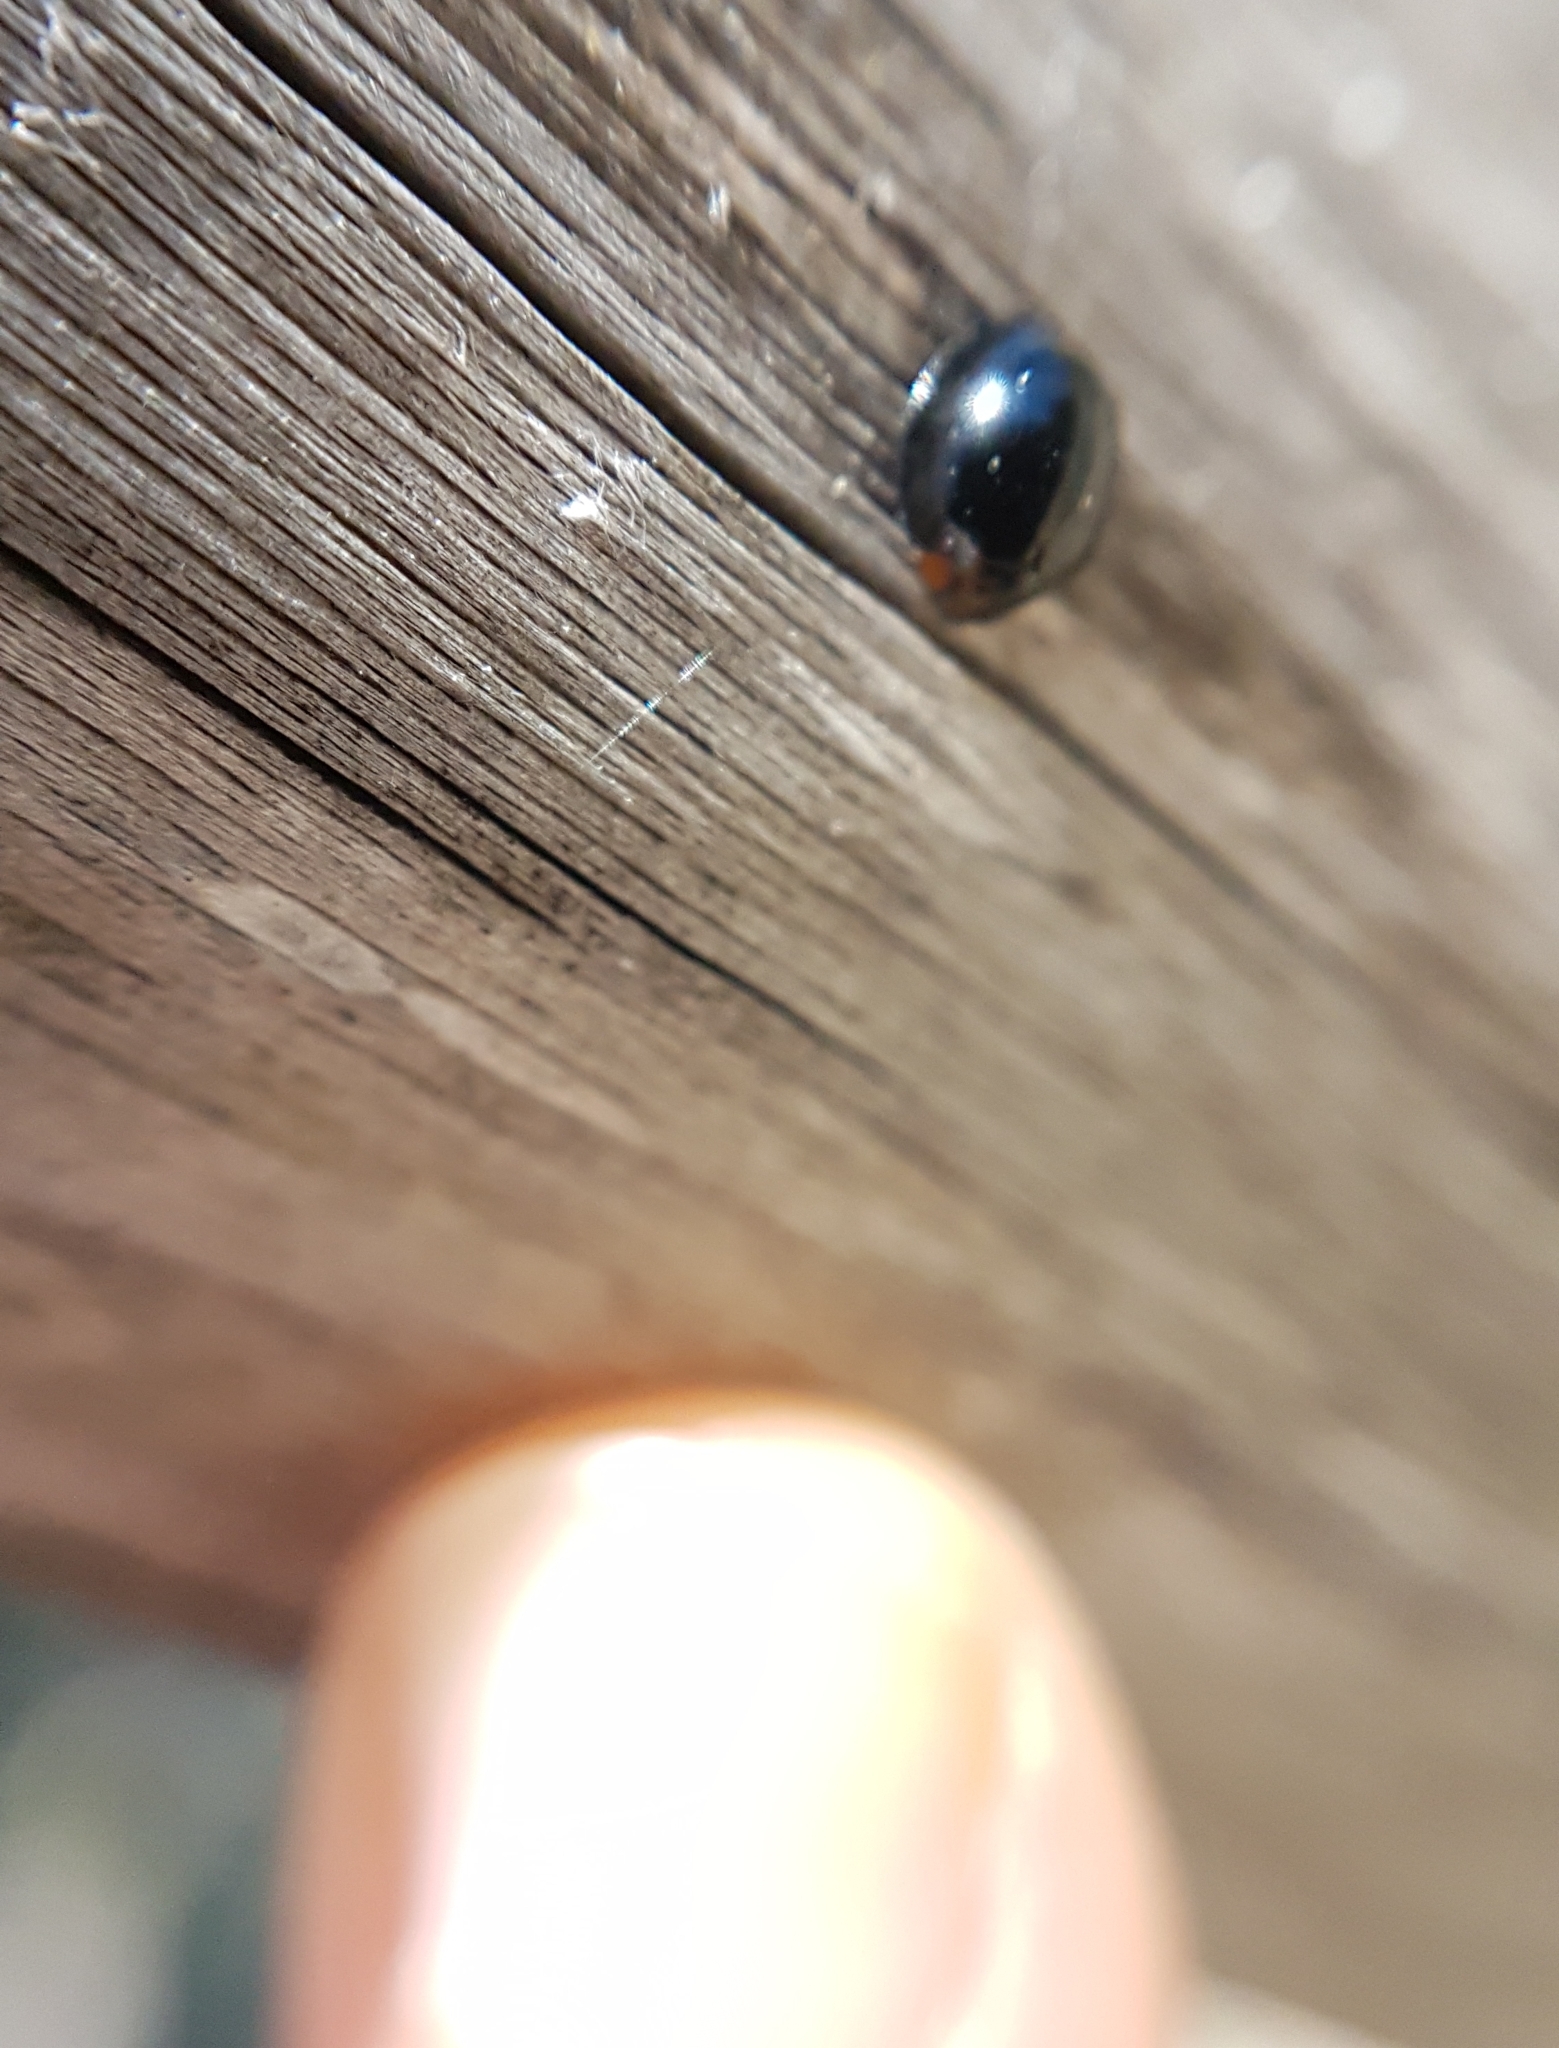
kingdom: Animalia
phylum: Arthropoda
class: Insecta
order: Coleoptera
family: Coccinellidae
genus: Parexochomus
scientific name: Parexochomus nigromaculatus
